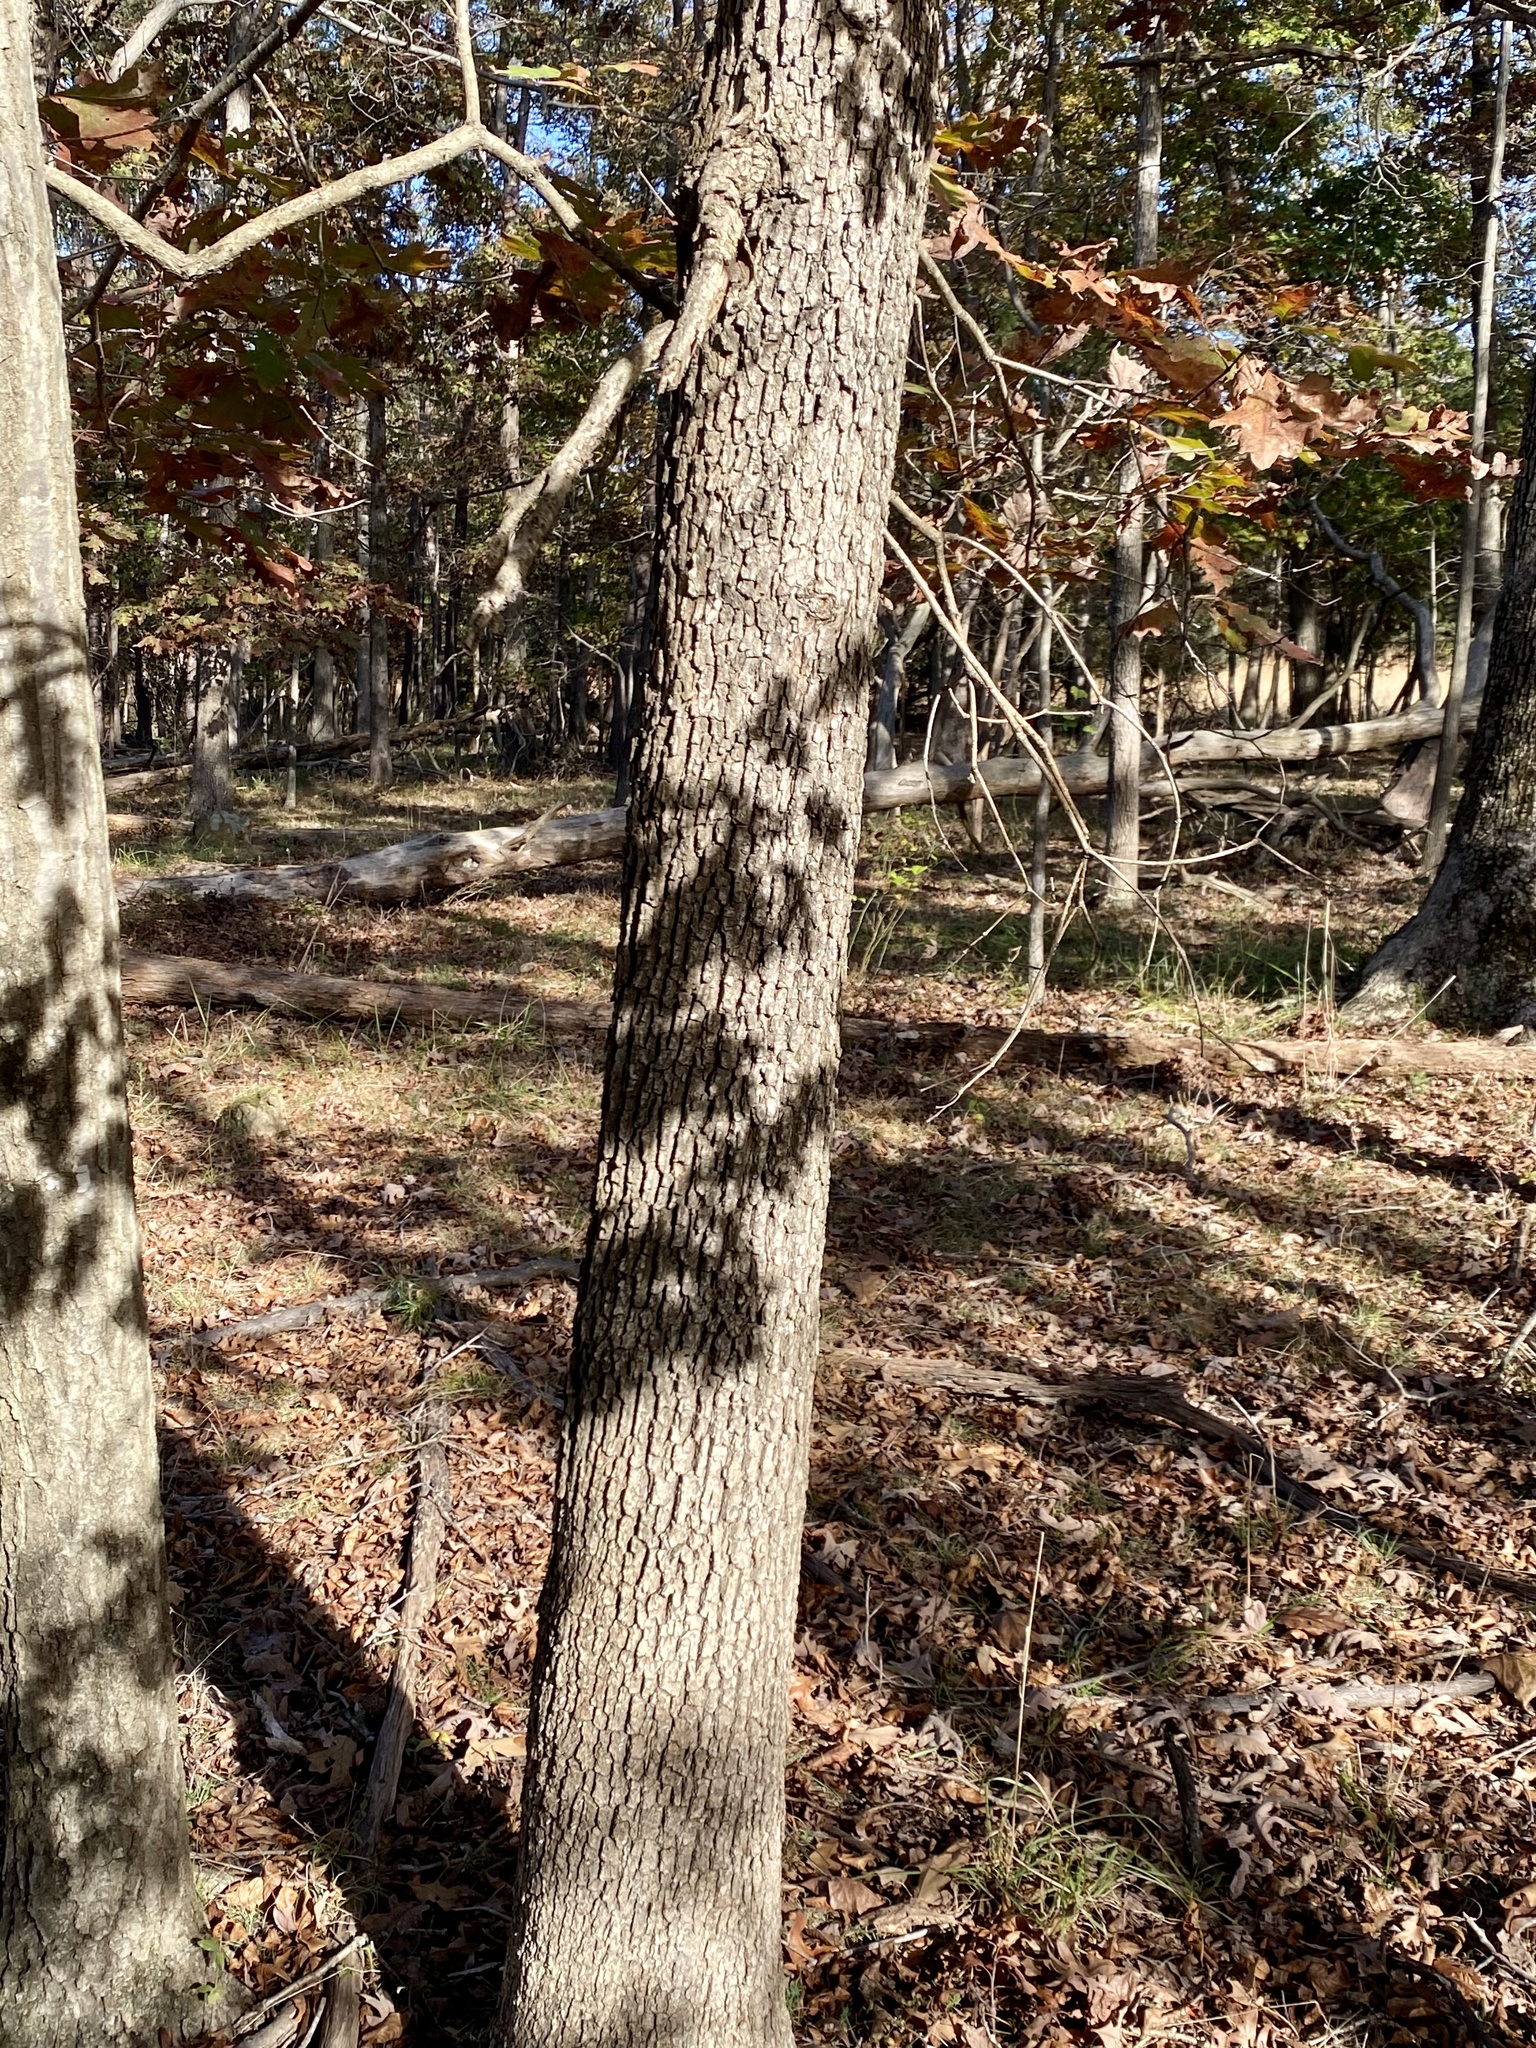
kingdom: Plantae
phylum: Tracheophyta
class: Magnoliopsida
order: Fagales
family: Fagaceae
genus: Quercus
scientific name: Quercus alba
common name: White oak
